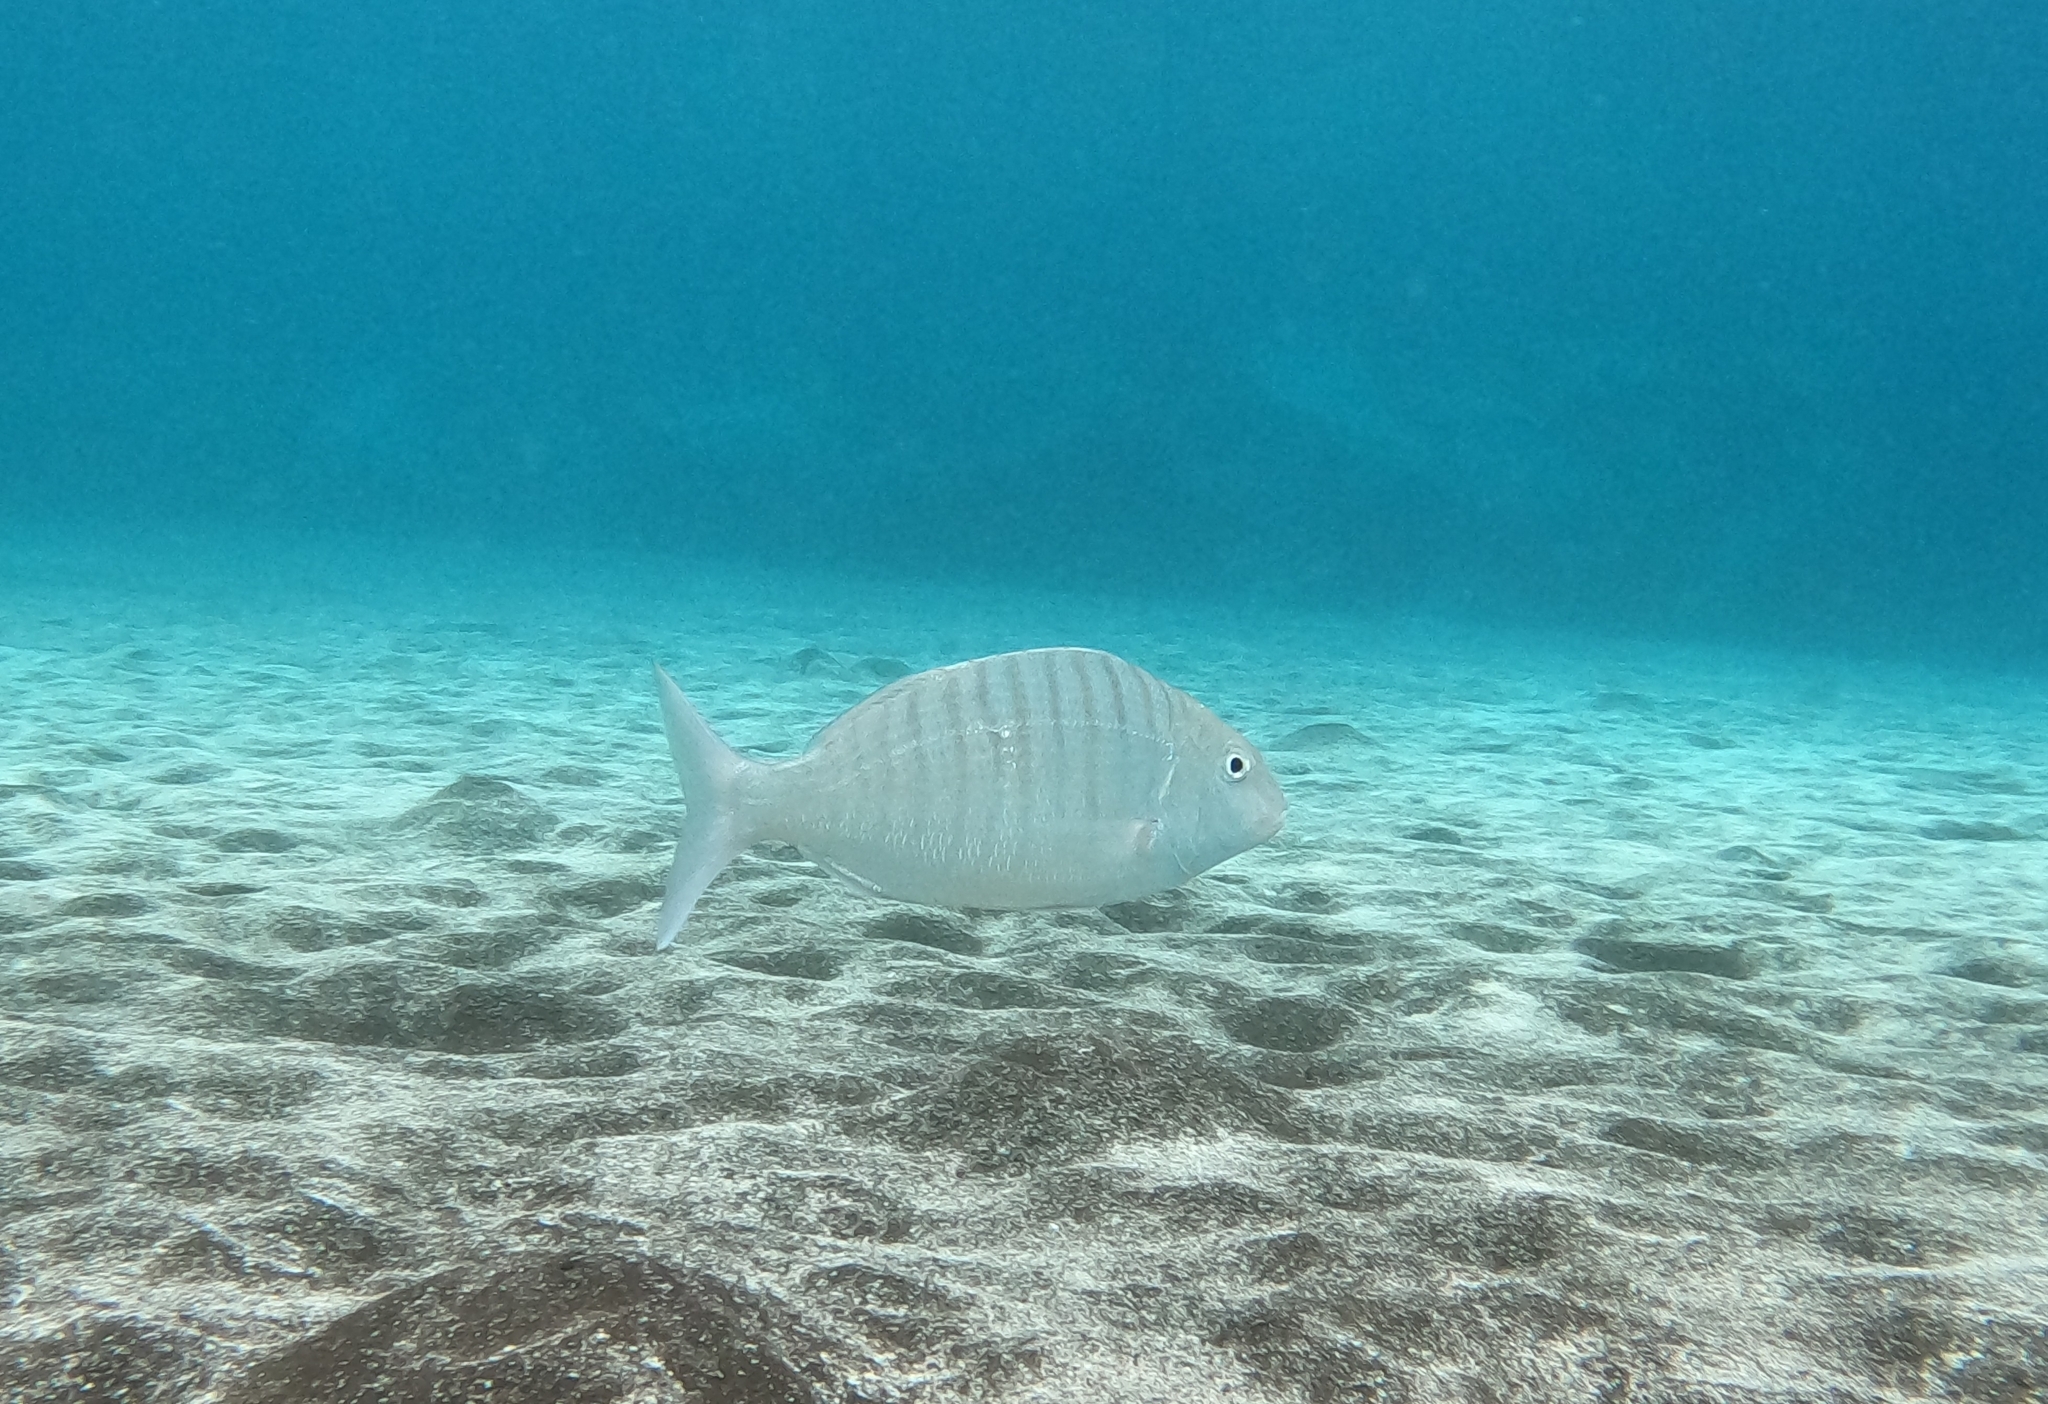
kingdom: Animalia
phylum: Chordata
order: Perciformes
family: Sparidae
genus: Lithognathus
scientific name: Lithognathus mormyrus
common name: Sand steenbras
